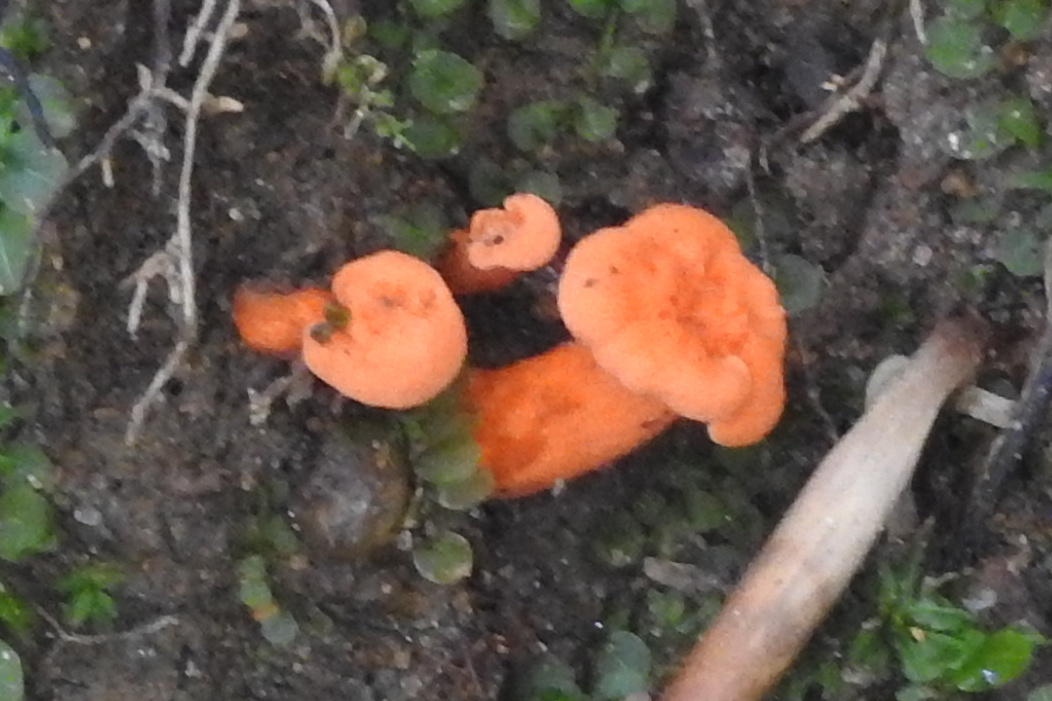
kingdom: Fungi
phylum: Basidiomycota
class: Agaricomycetes
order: Cantharellales
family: Hydnaceae
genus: Cantharellus
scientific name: Cantharellus cinnabarinus
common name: Cinnabar chanterelle
